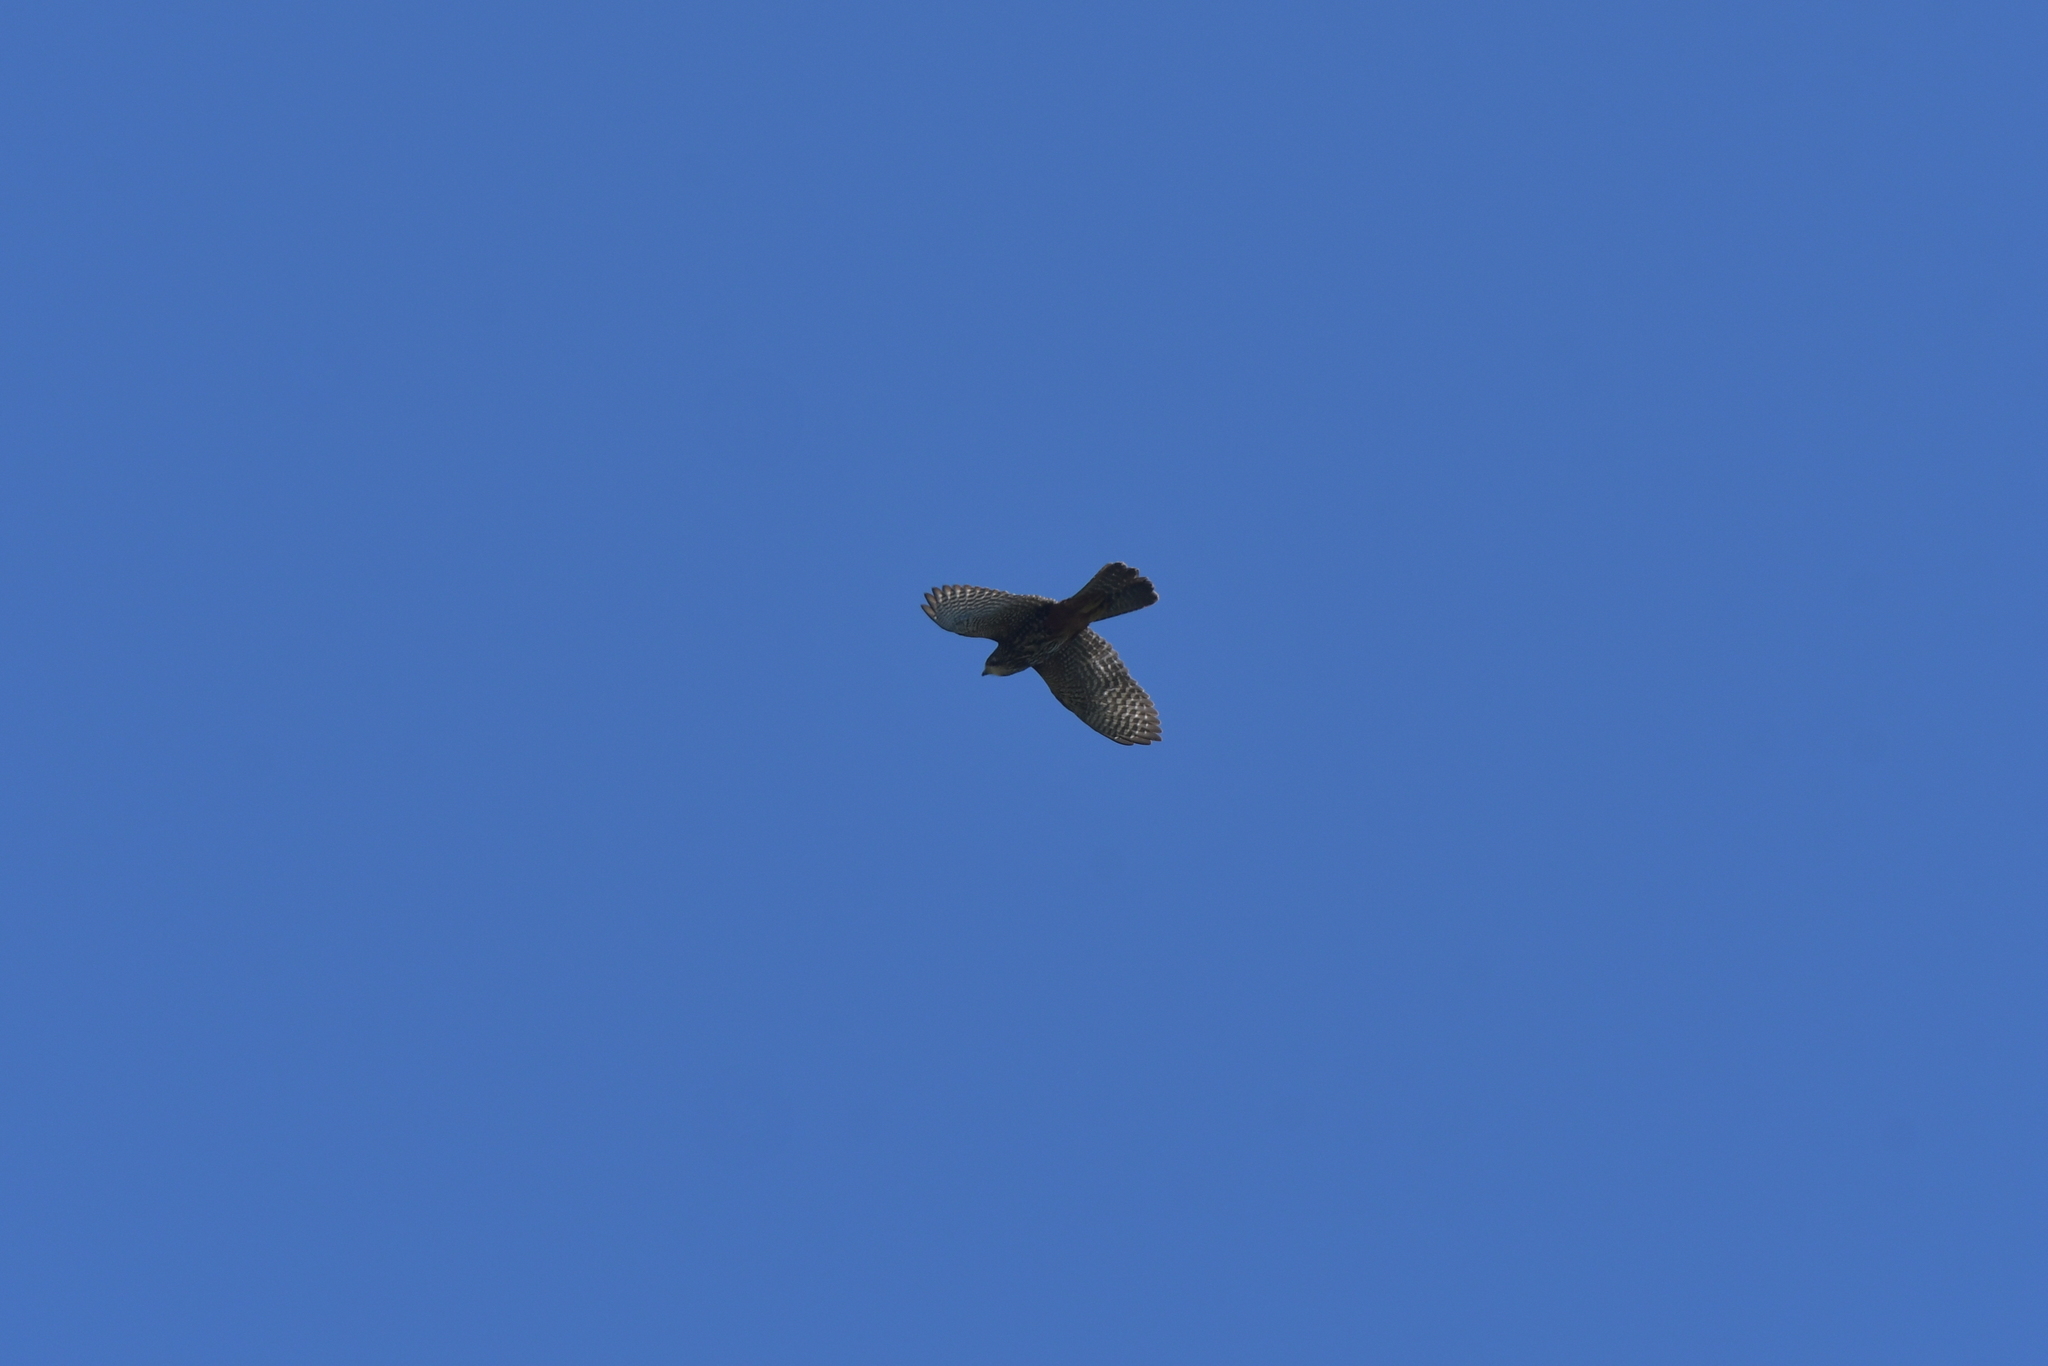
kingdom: Animalia
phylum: Chordata
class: Aves
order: Falconiformes
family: Falconidae
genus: Falco
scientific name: Falco novaeseelandiae
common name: New zealand falcon
